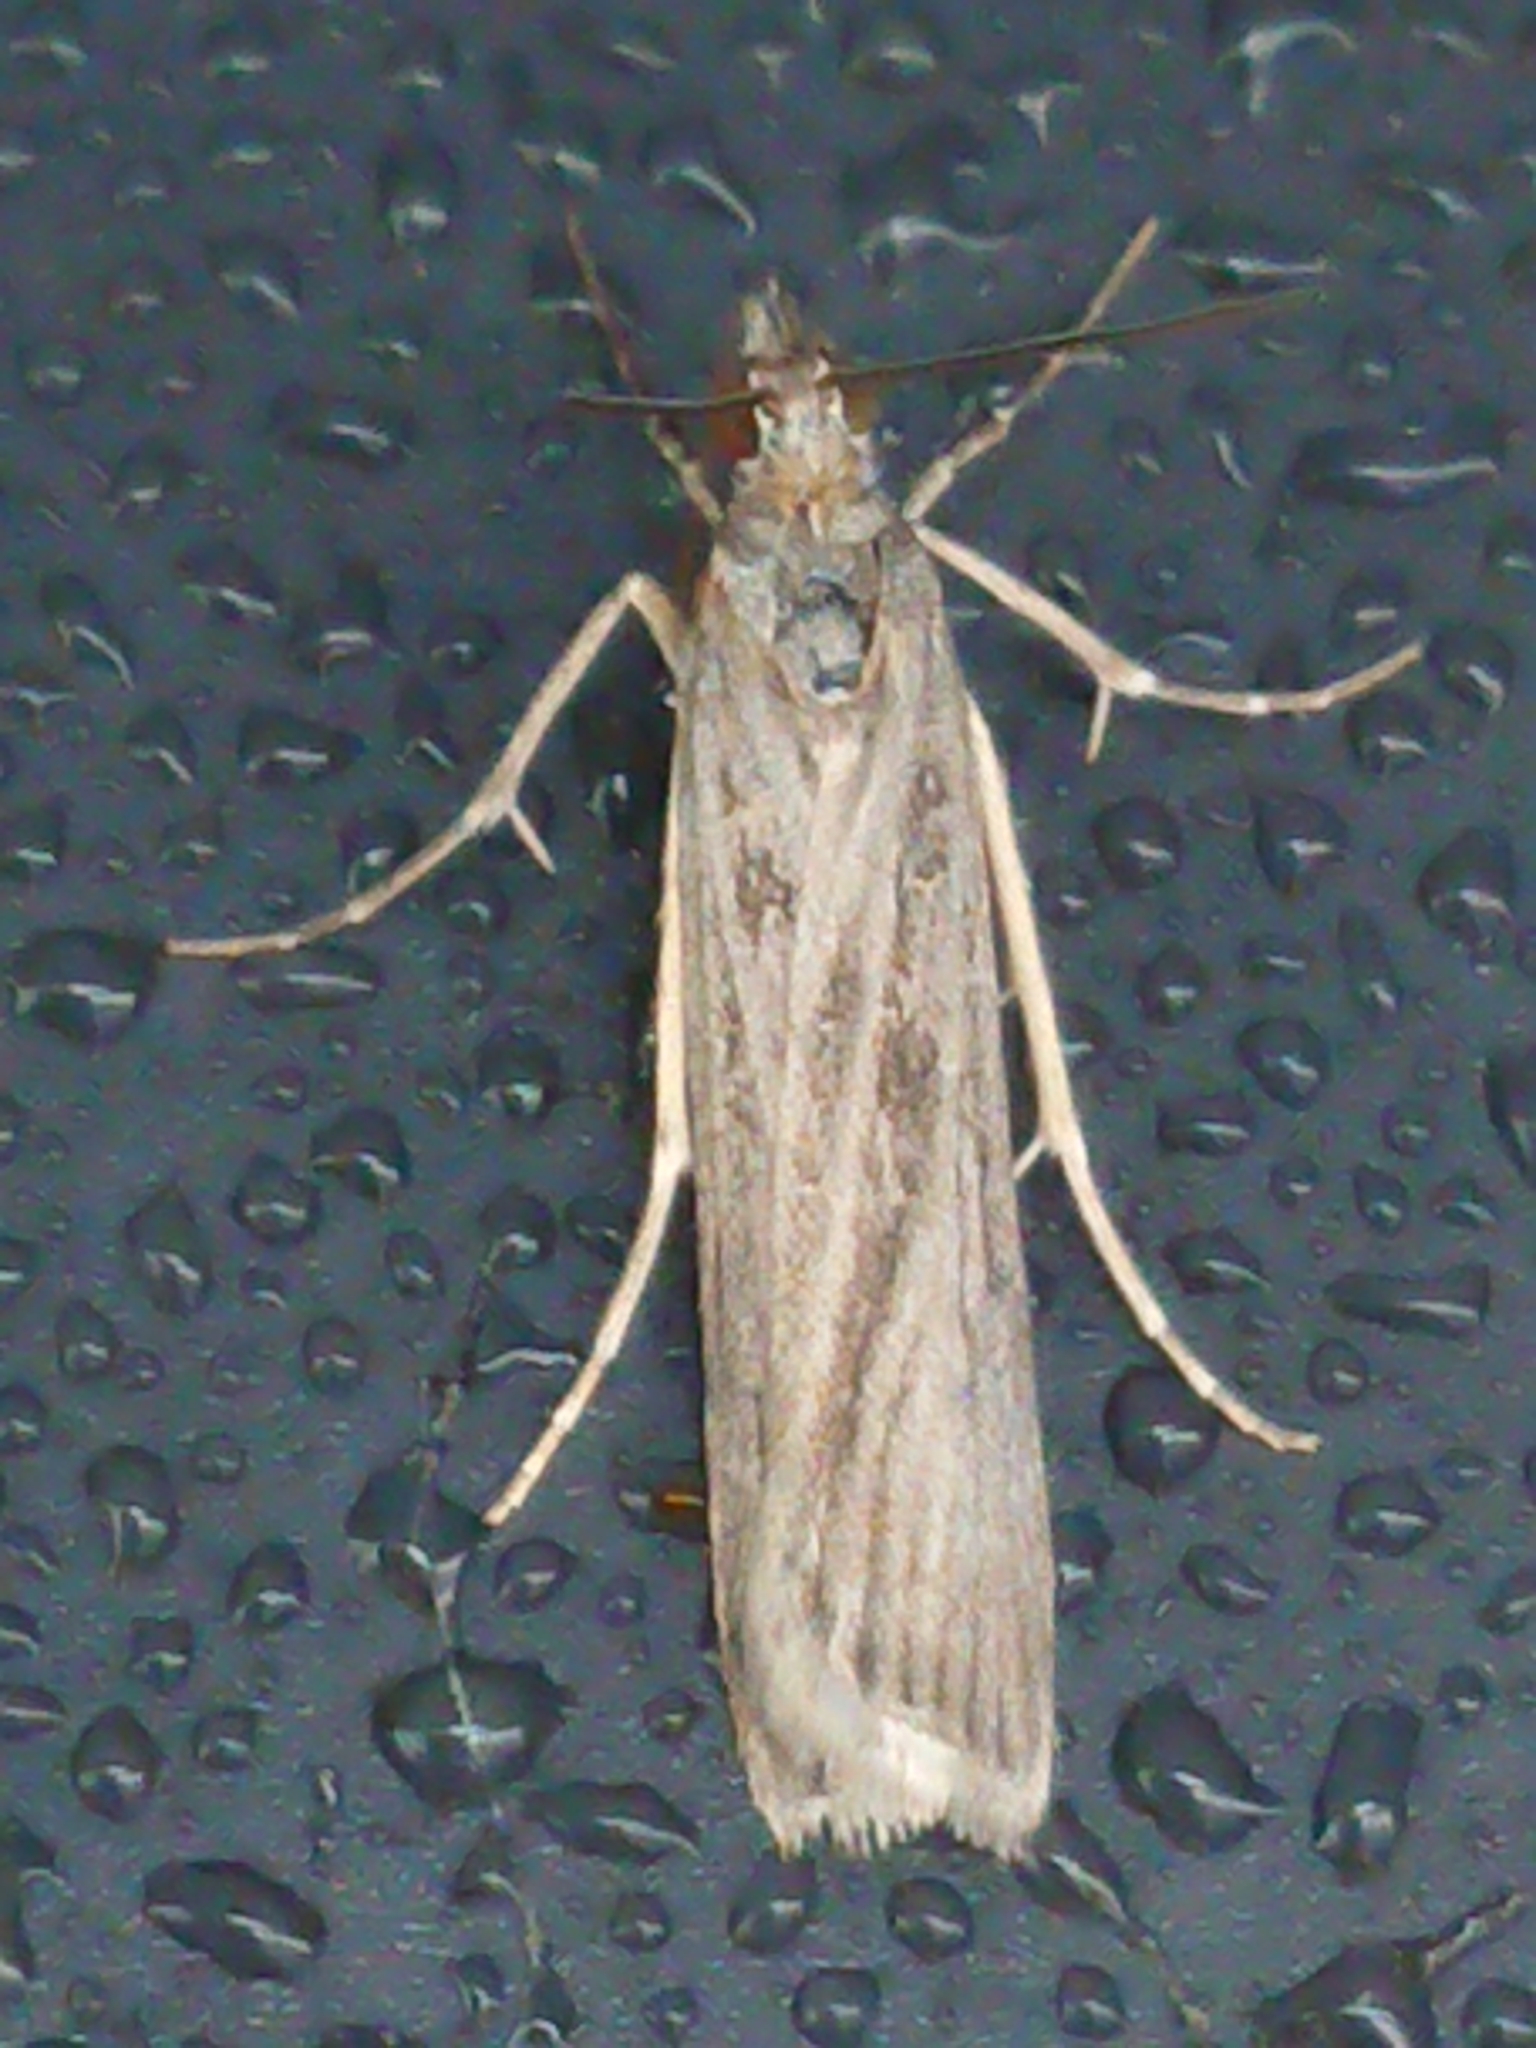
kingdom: Animalia
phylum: Arthropoda
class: Insecta
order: Lepidoptera
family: Crambidae
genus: Eudonia
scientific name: Eudonia atmogramma
